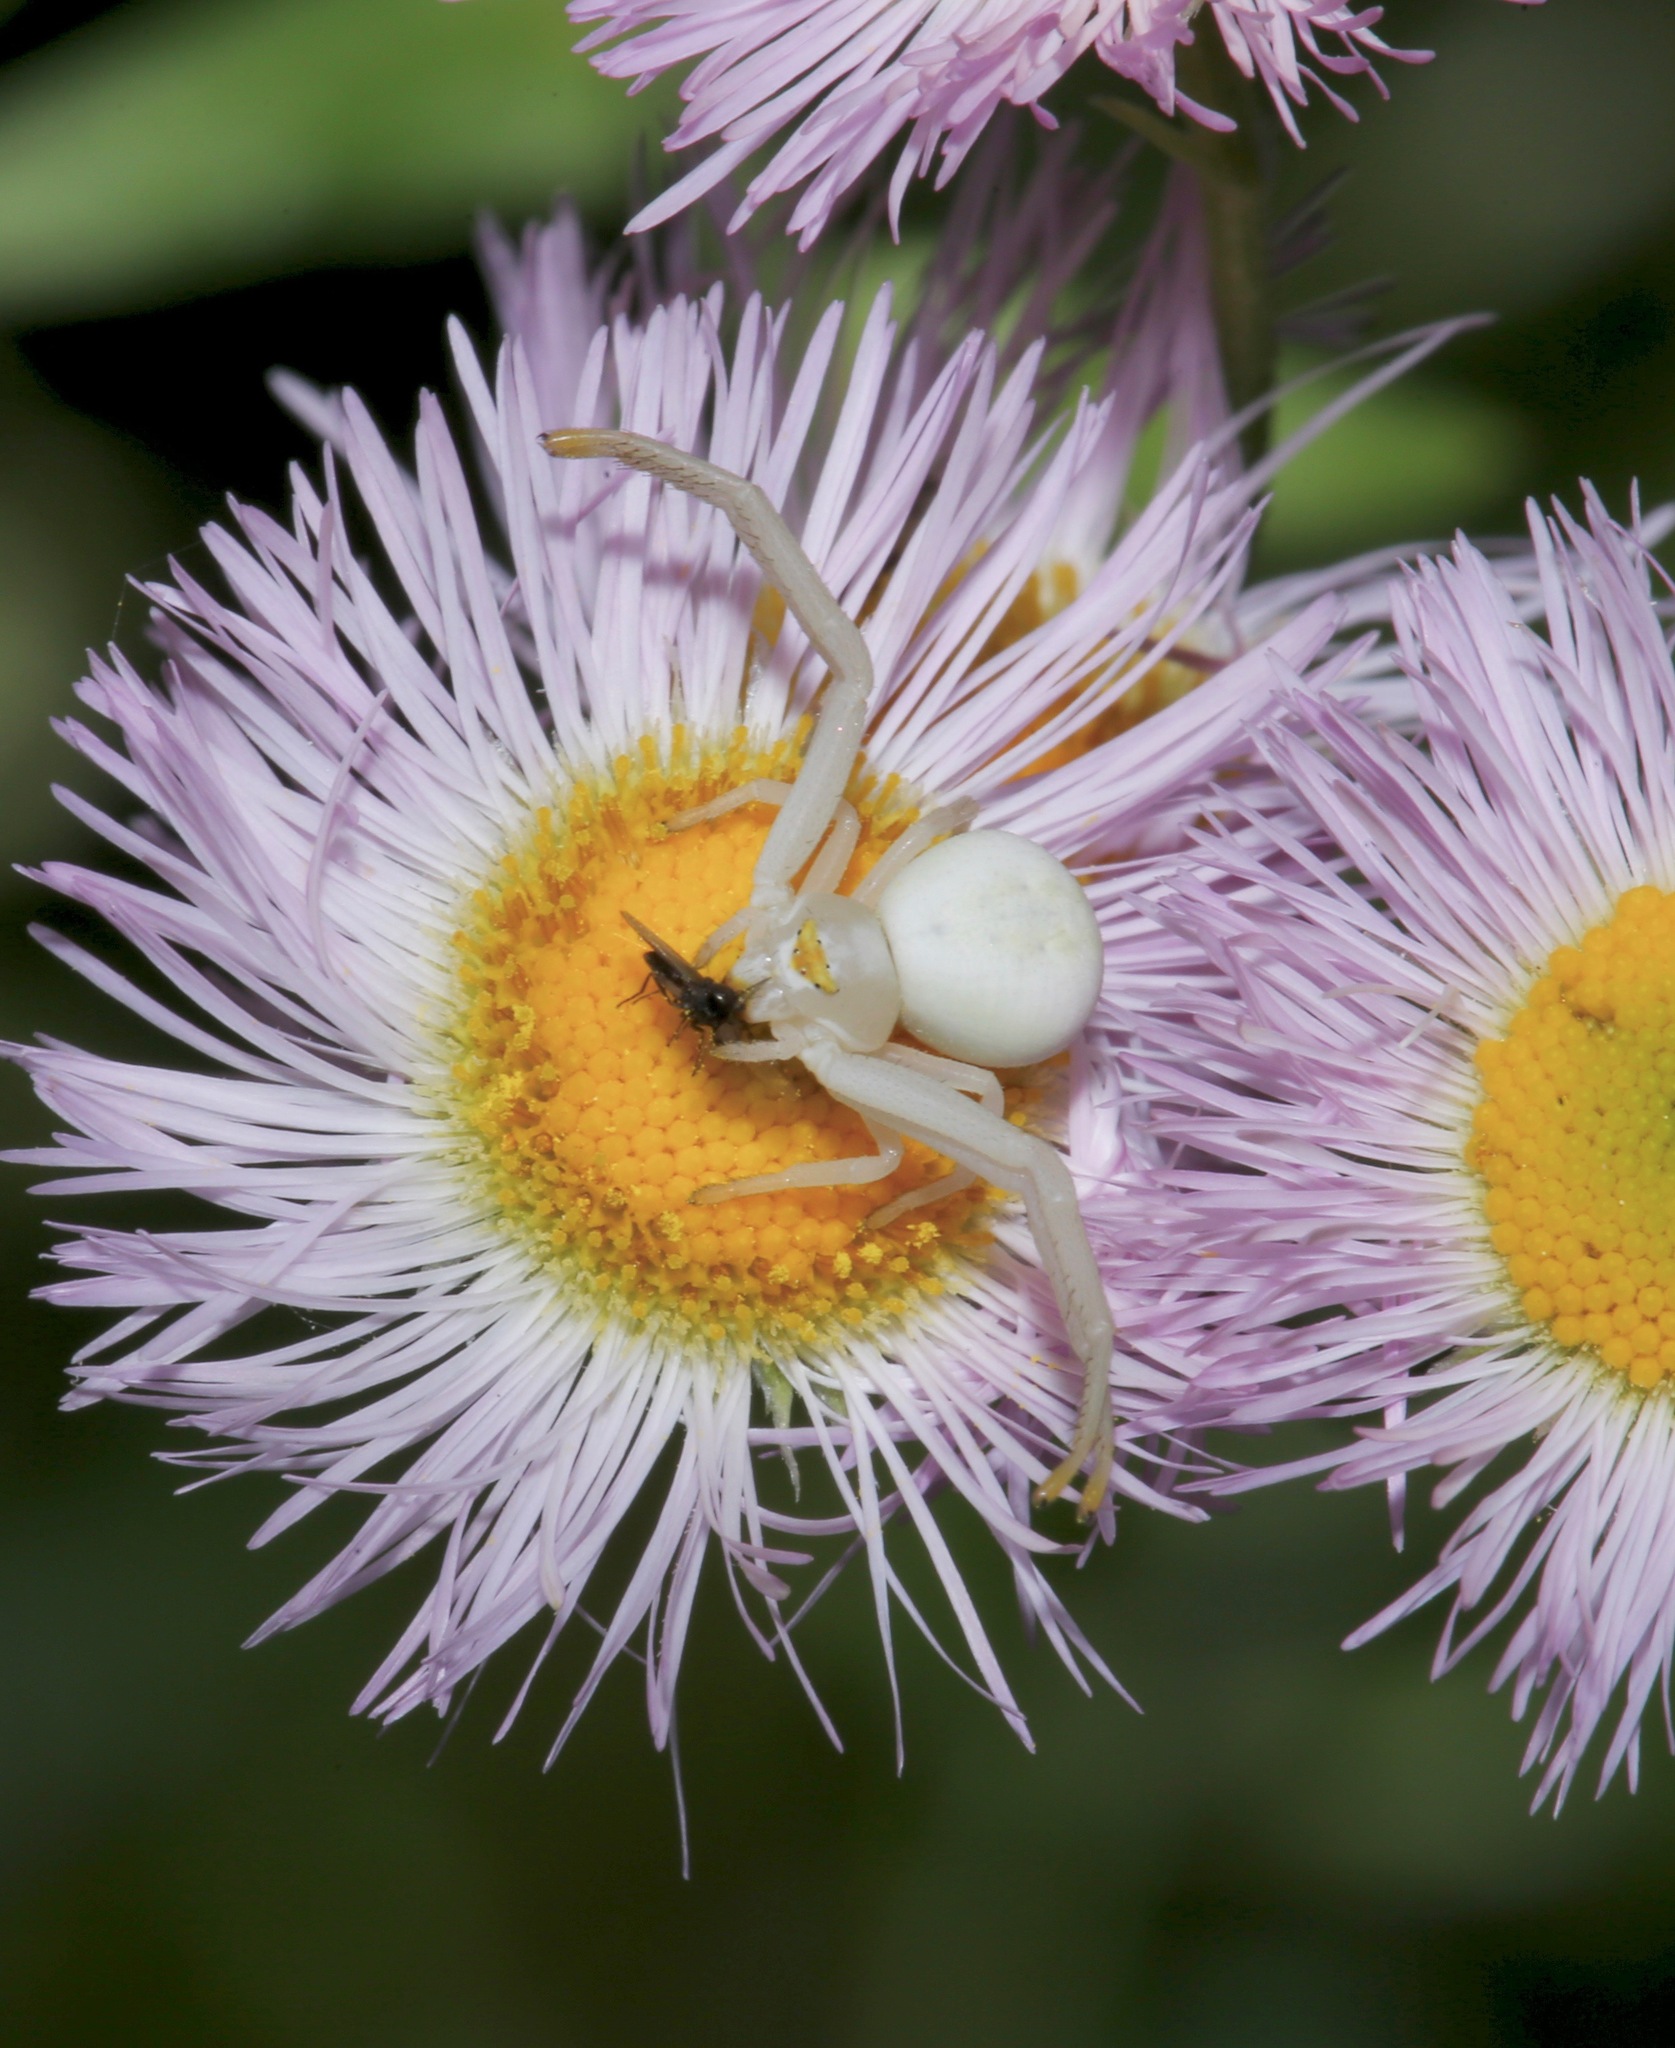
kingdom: Animalia
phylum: Arthropoda
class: Arachnida
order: Araneae
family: Thomisidae
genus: Misumena
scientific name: Misumena vatia
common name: Goldenrod crab spider
